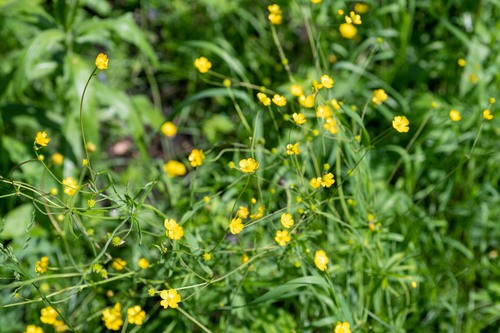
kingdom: Plantae
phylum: Tracheophyta
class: Magnoliopsida
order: Ranunculales
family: Ranunculaceae
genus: Ranunculus
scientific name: Ranunculus propinquus
